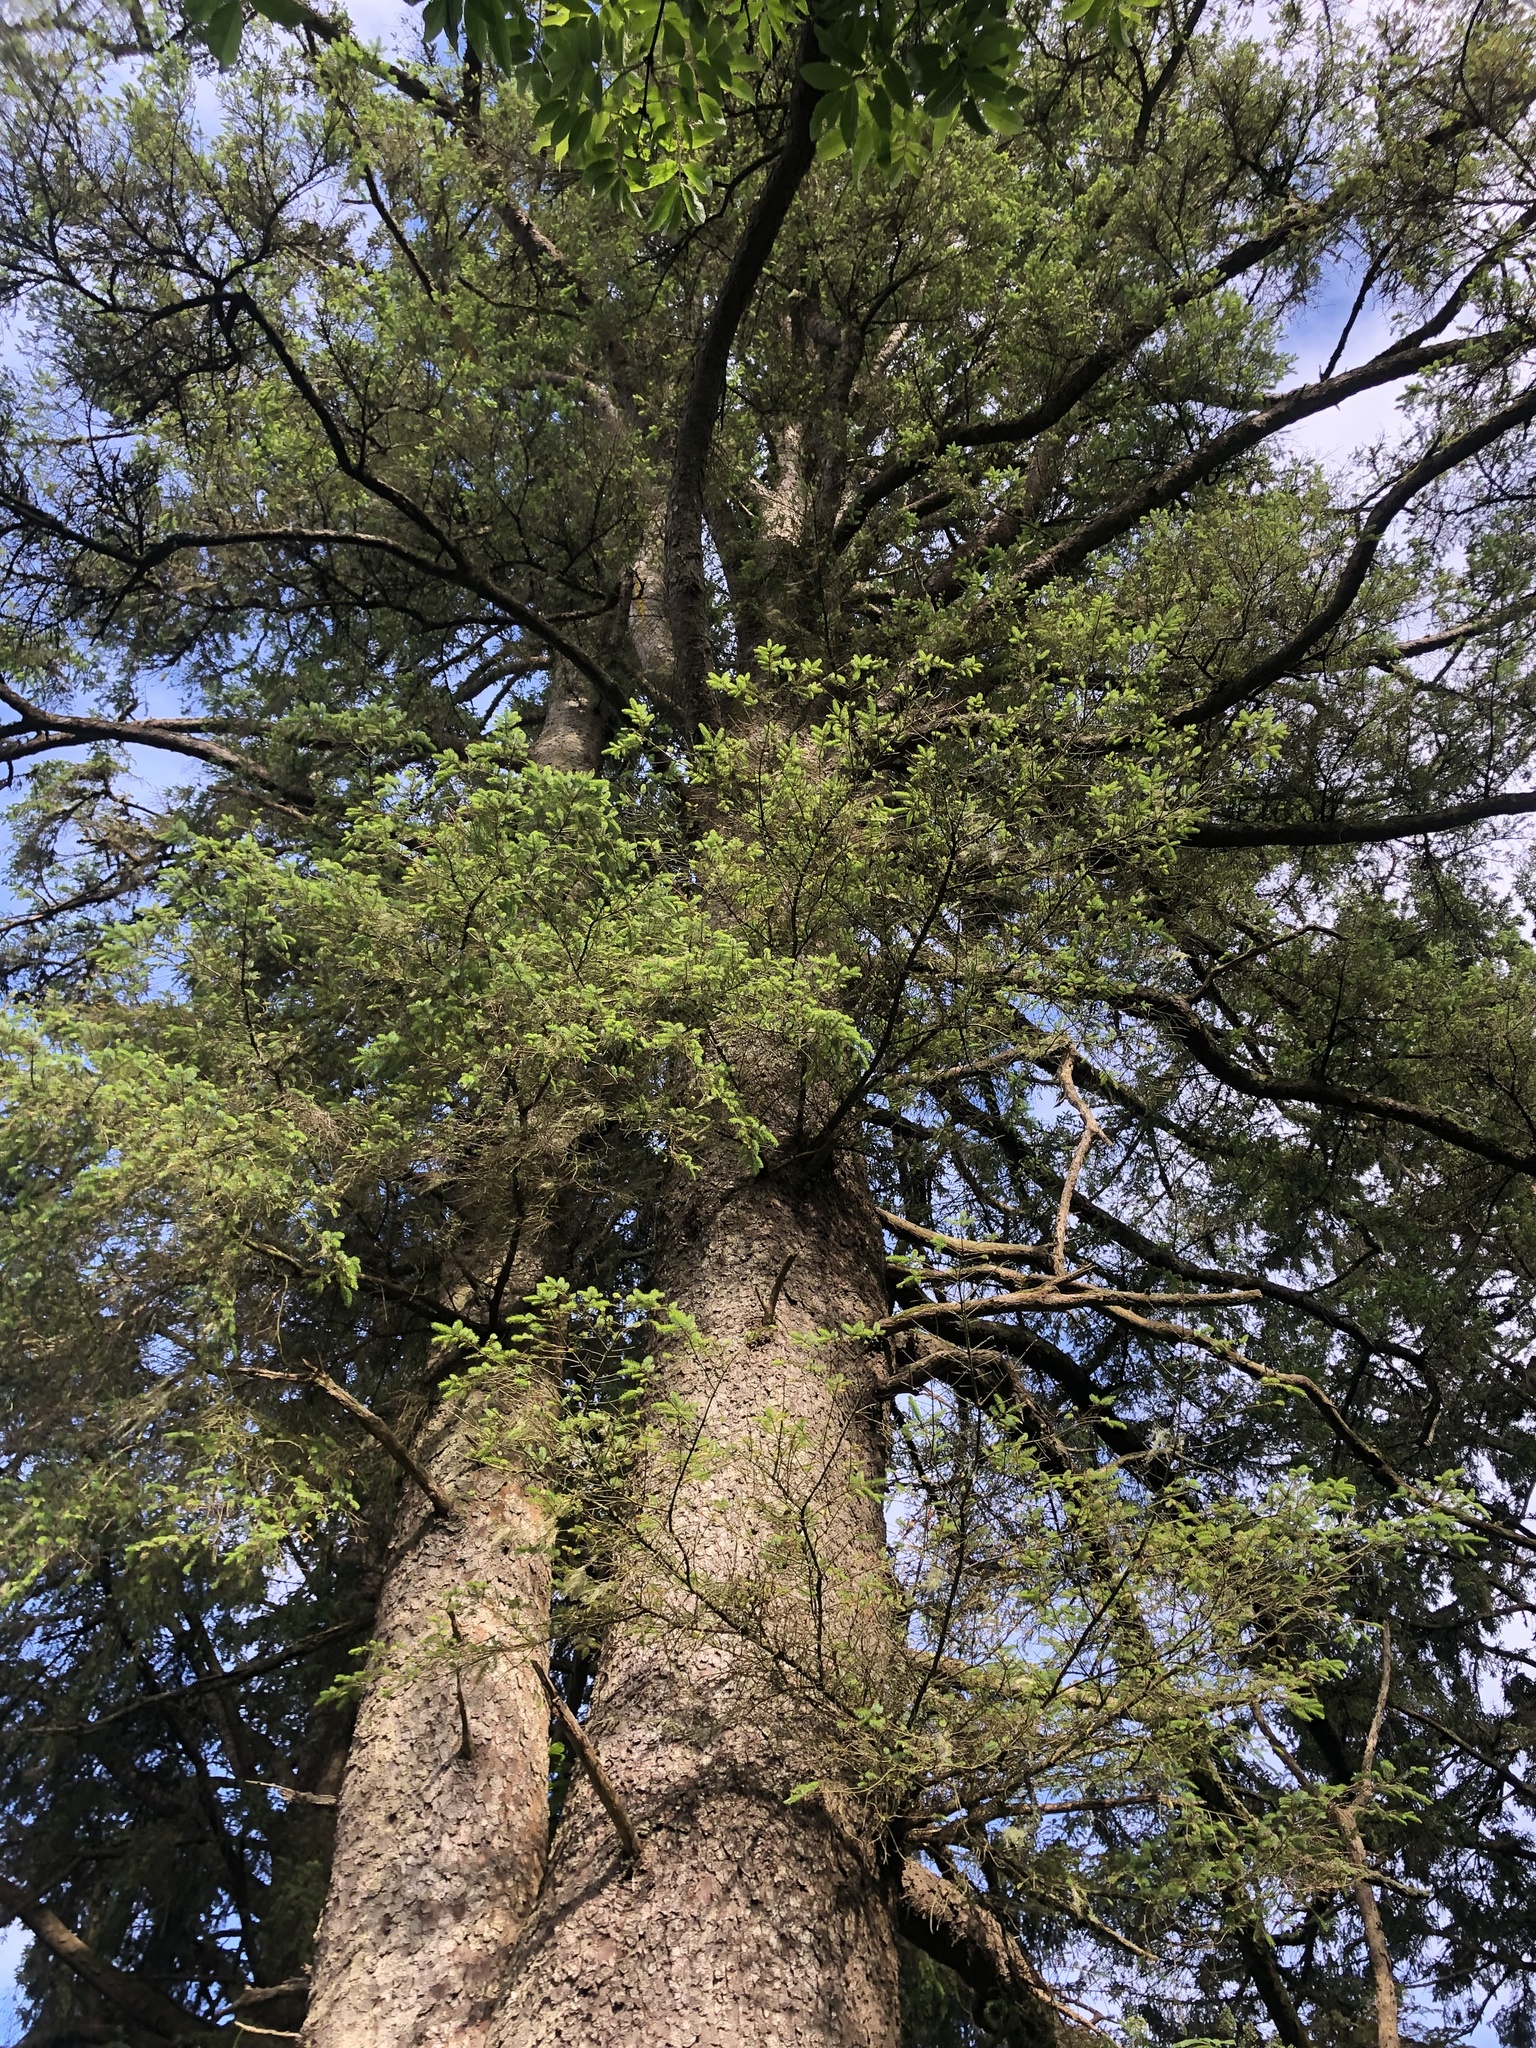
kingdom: Plantae
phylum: Tracheophyta
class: Pinopsida
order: Pinales
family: Pinaceae
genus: Picea
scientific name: Picea sitchensis
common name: Sitka spruce
